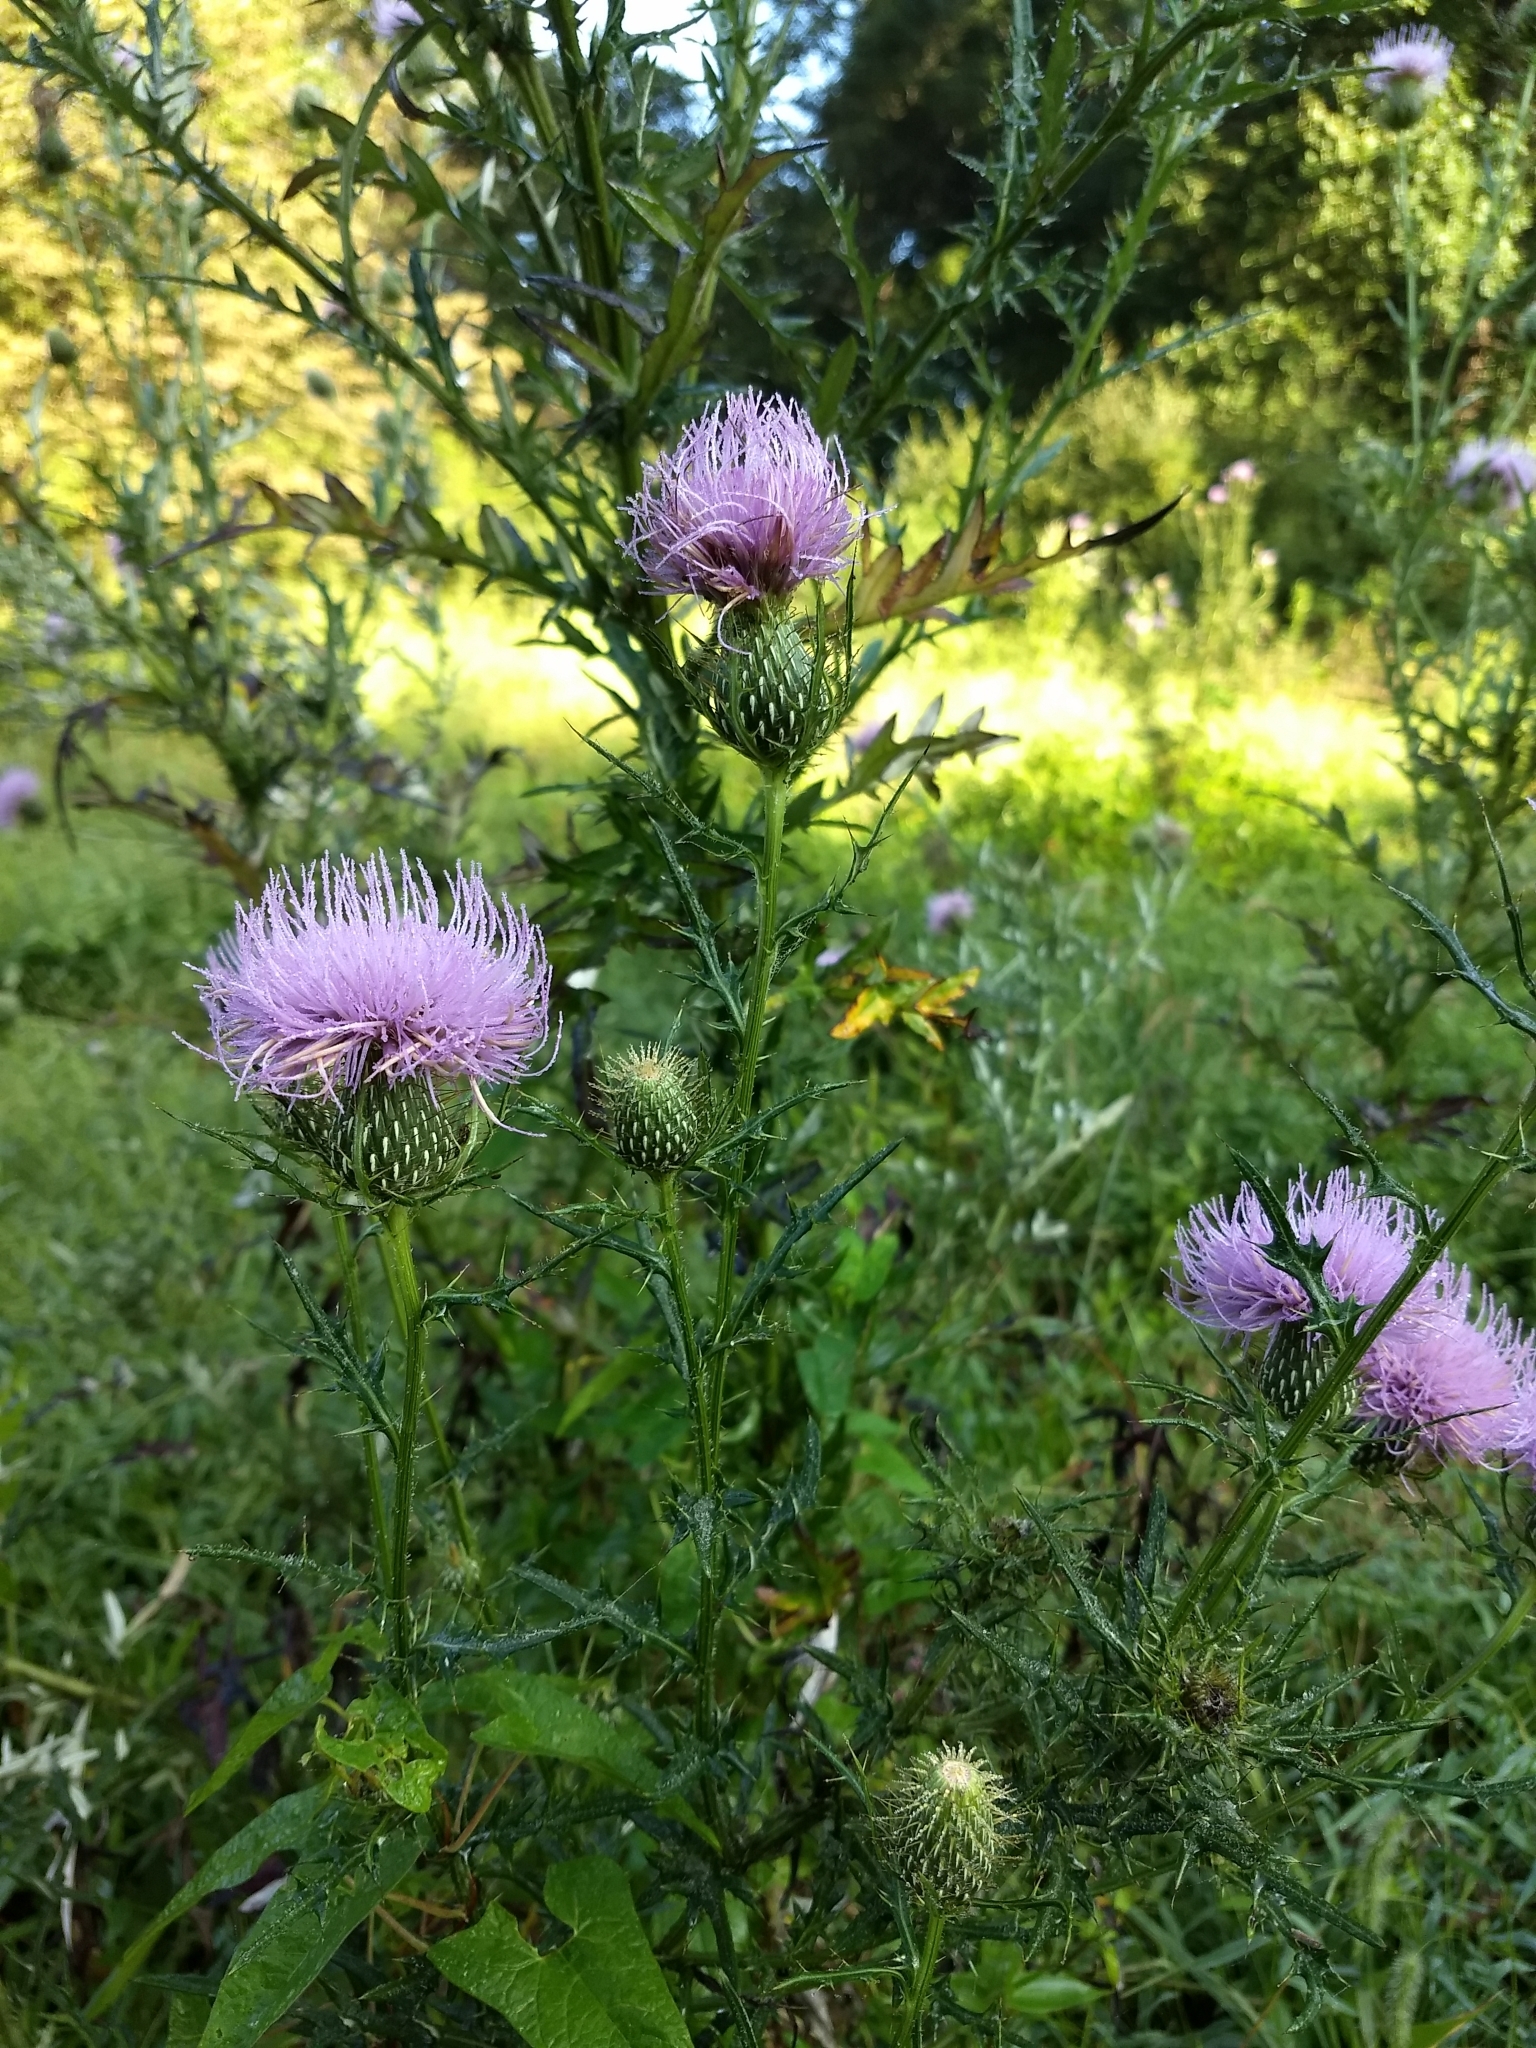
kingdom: Plantae
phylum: Tracheophyta
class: Magnoliopsida
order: Asterales
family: Asteraceae
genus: Cirsium
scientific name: Cirsium vulgare
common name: Bull thistle
